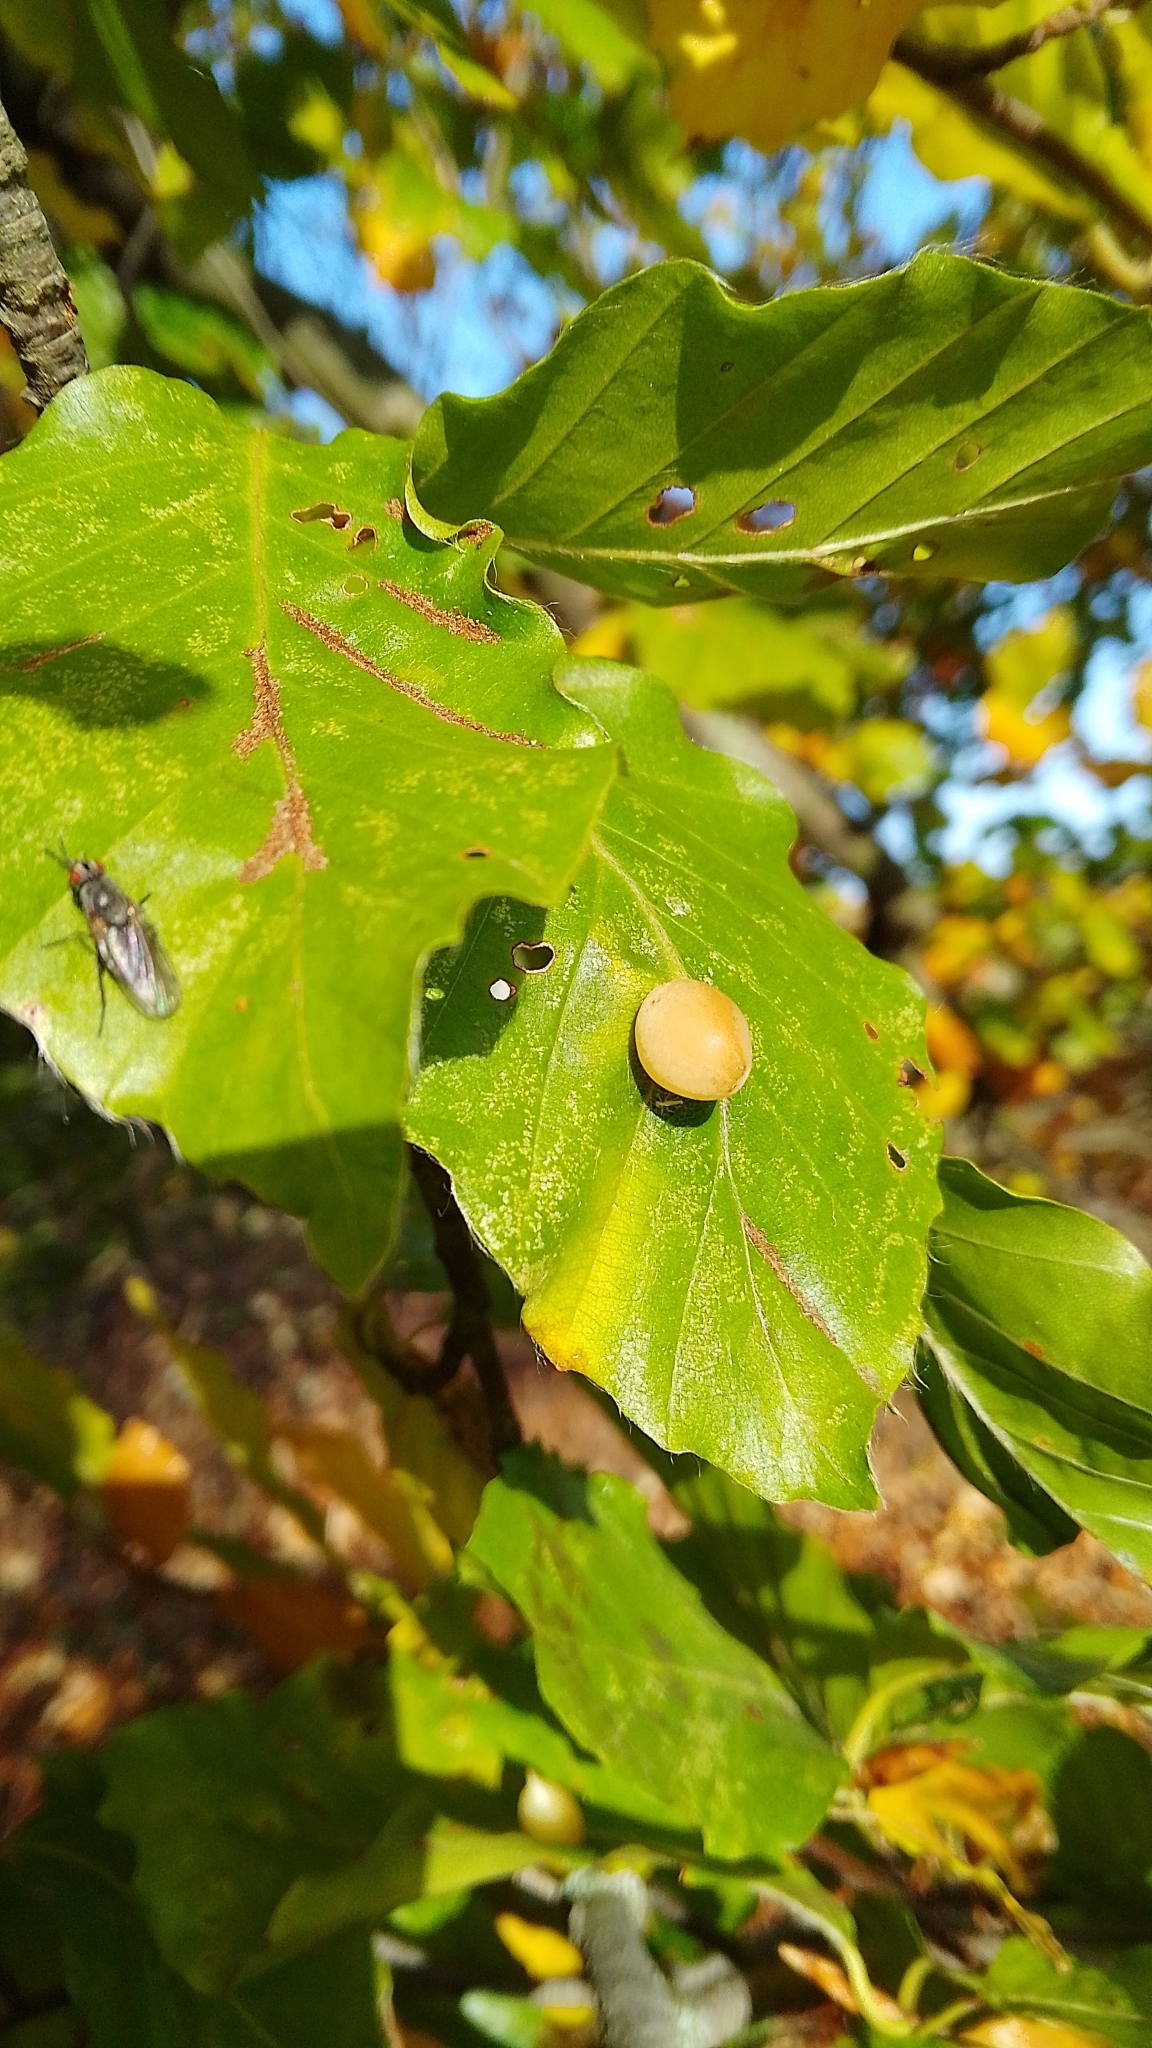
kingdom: Animalia
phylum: Arthropoda
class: Insecta
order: Diptera
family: Cecidomyiidae
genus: Mikiola
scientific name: Mikiola fagi
